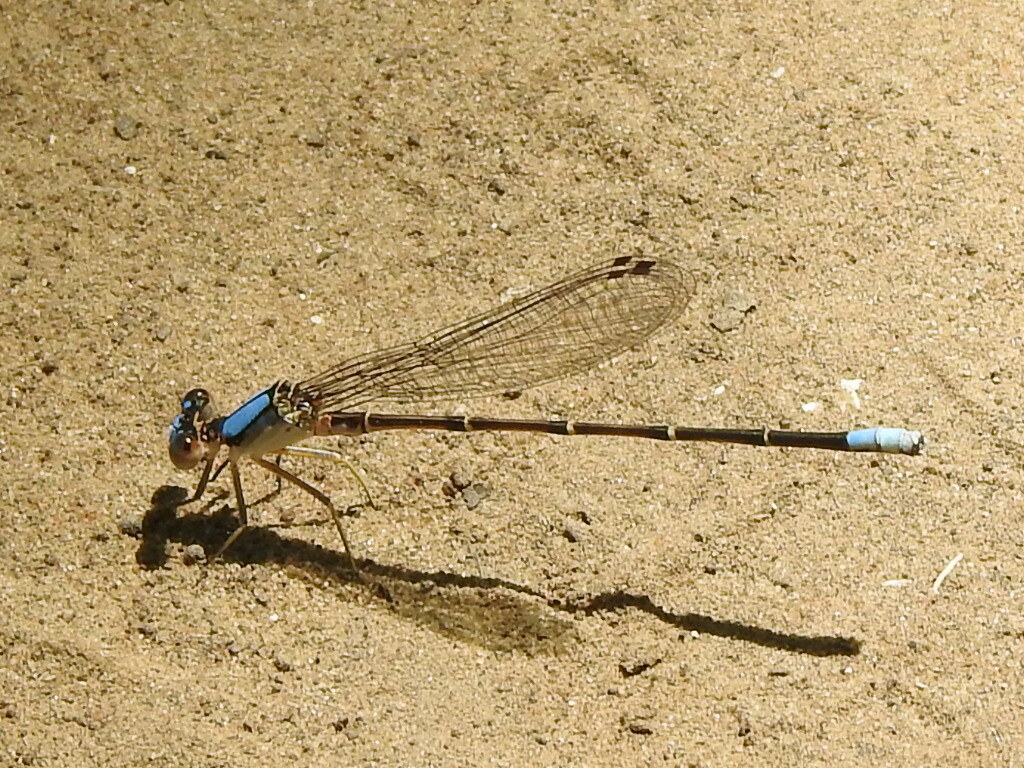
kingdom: Animalia
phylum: Arthropoda
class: Insecta
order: Odonata
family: Coenagrionidae
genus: Argia
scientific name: Argia apicalis
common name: Blue-fronted dancer
